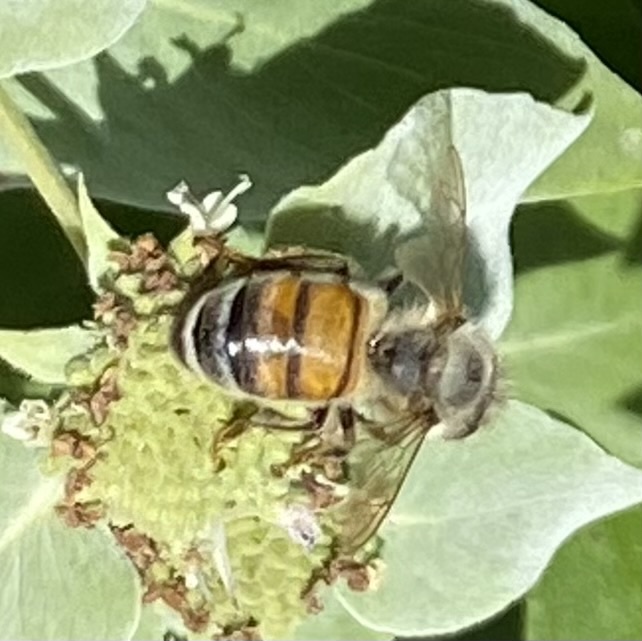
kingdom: Animalia
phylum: Arthropoda
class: Insecta
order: Hymenoptera
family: Apidae
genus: Apis
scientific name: Apis mellifera
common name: Honey bee
